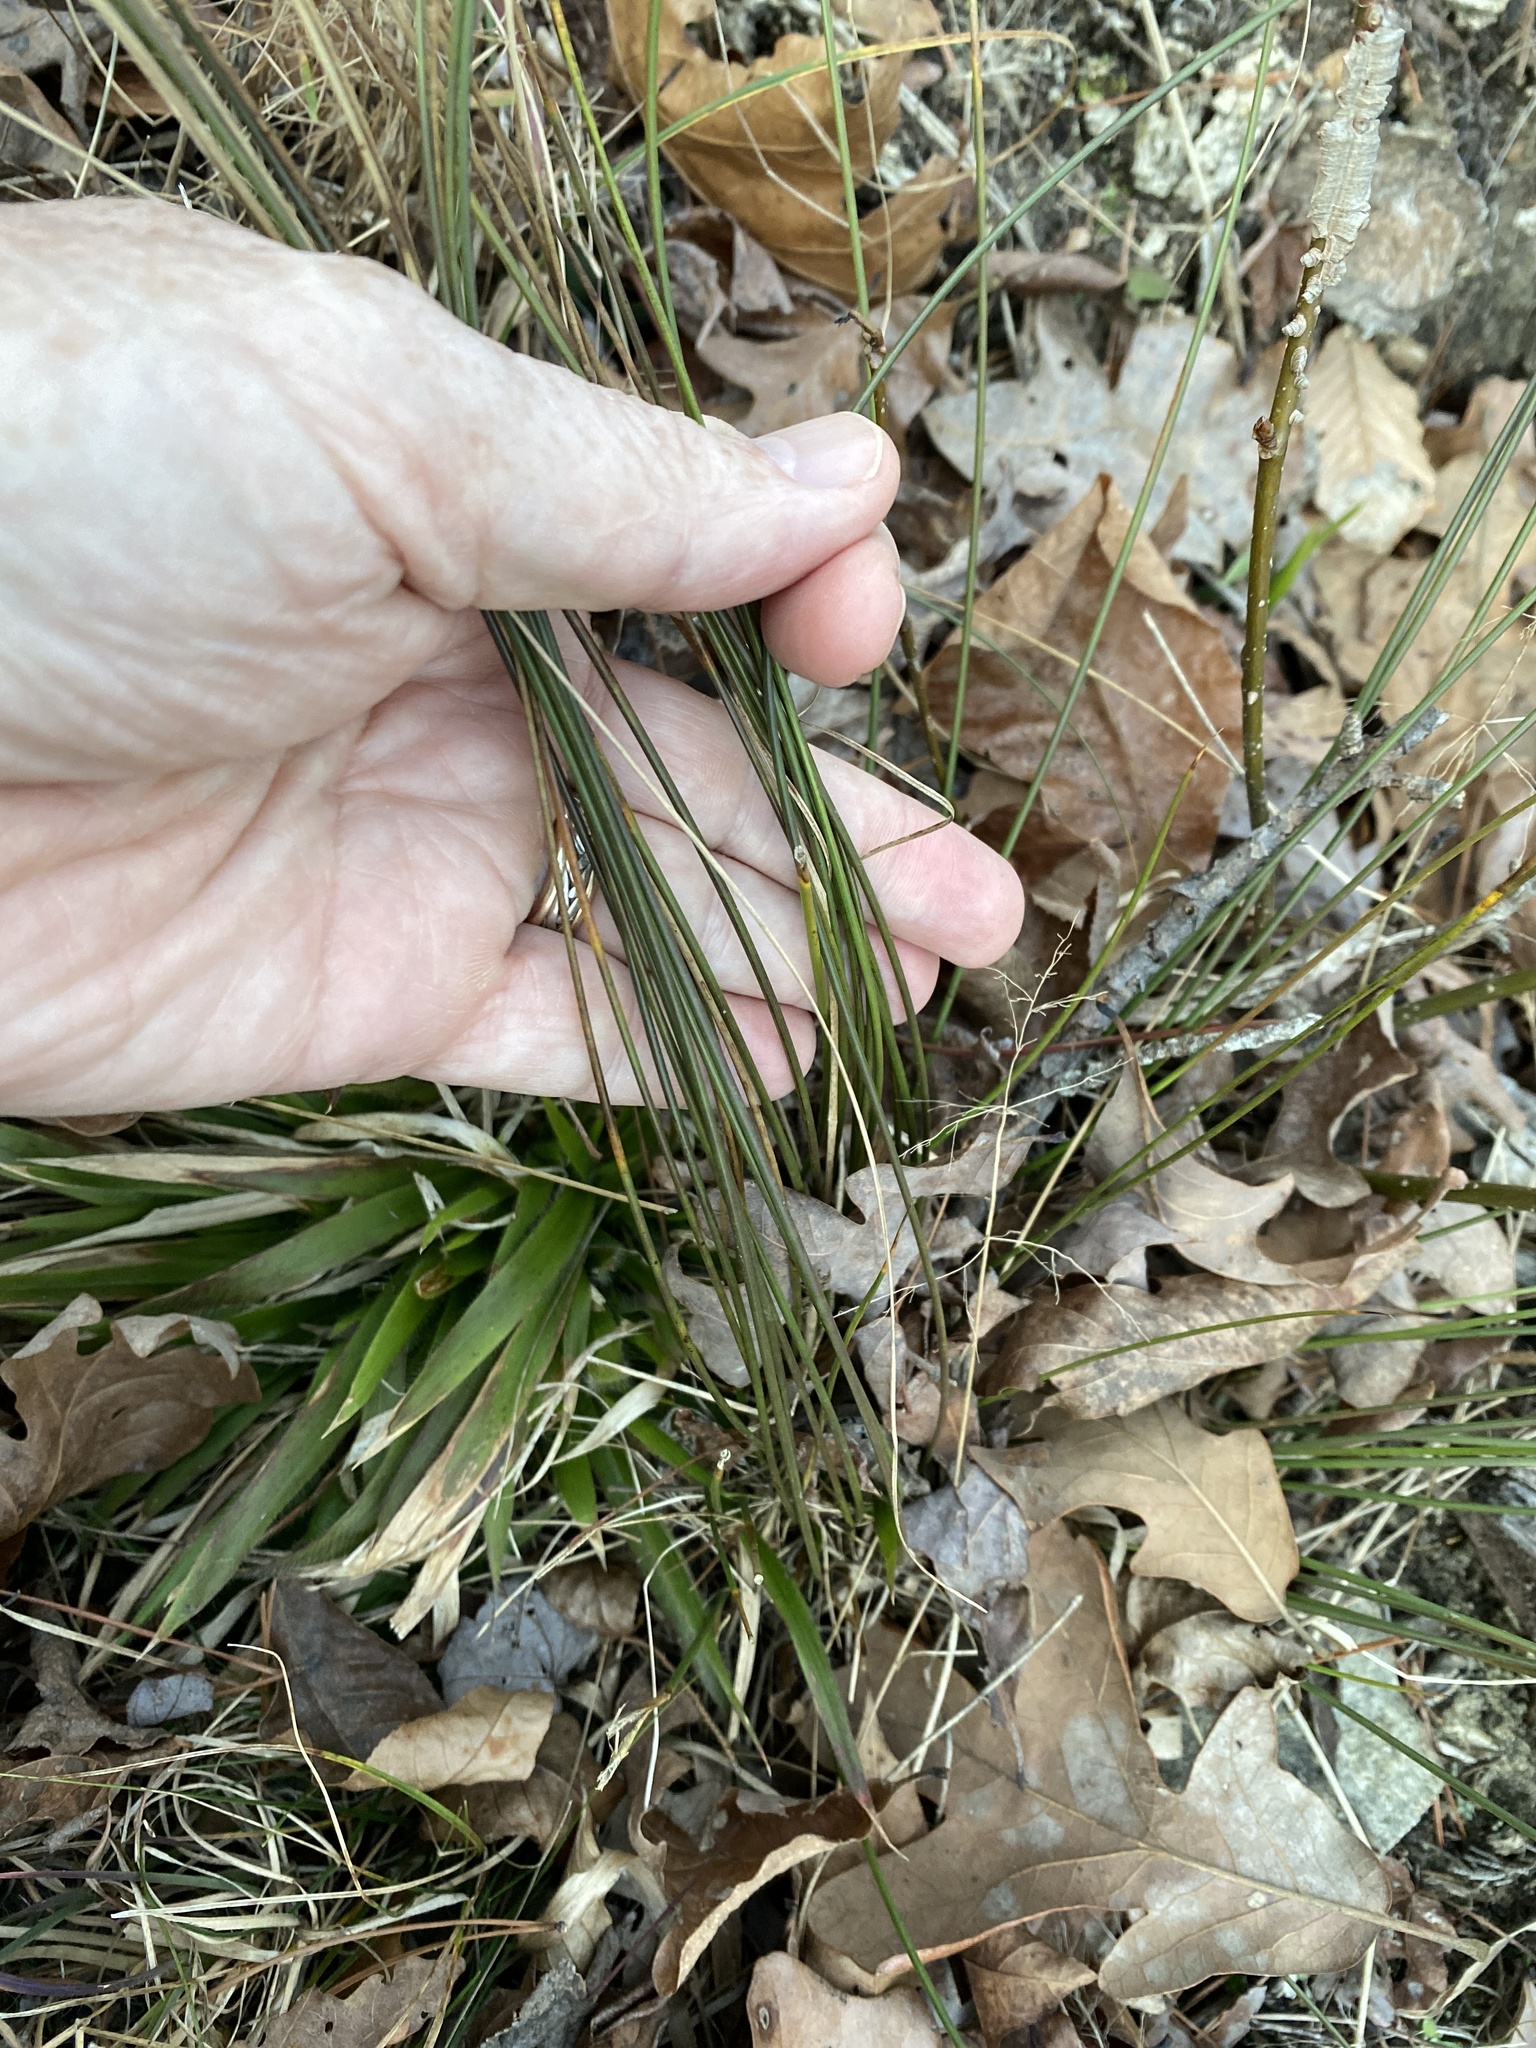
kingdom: Plantae
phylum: Tracheophyta
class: Liliopsida
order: Poales
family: Juncaceae
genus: Juncus
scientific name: Juncus coriaceus
